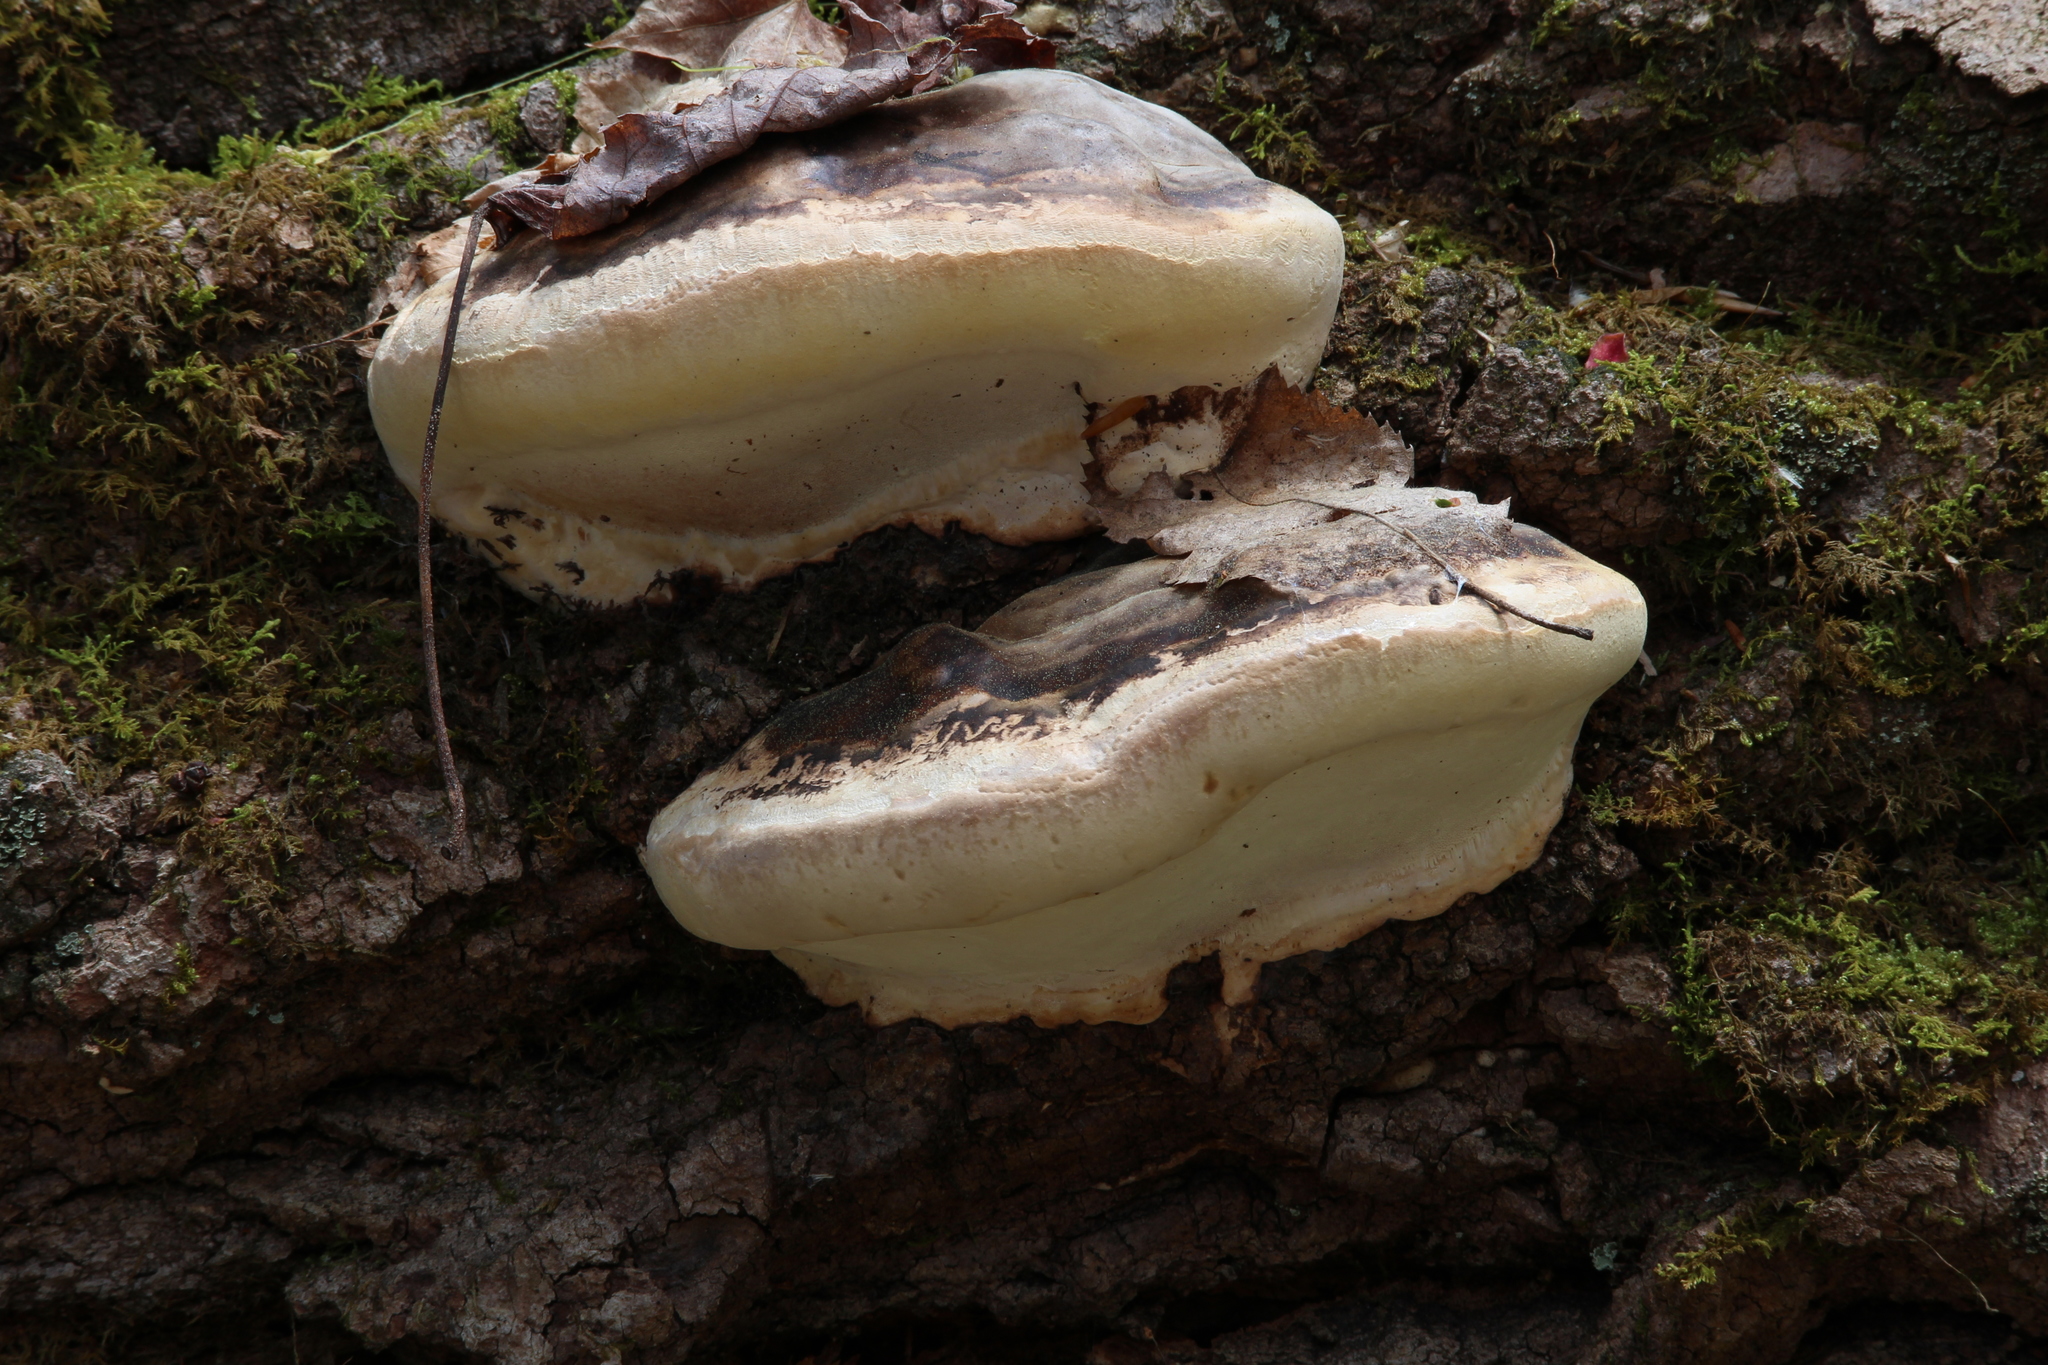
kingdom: Fungi
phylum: Basidiomycota
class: Agaricomycetes
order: Polyporales
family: Fomitopsidaceae
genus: Fomitopsis
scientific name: Fomitopsis ochracea
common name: American brown fomitopsis
